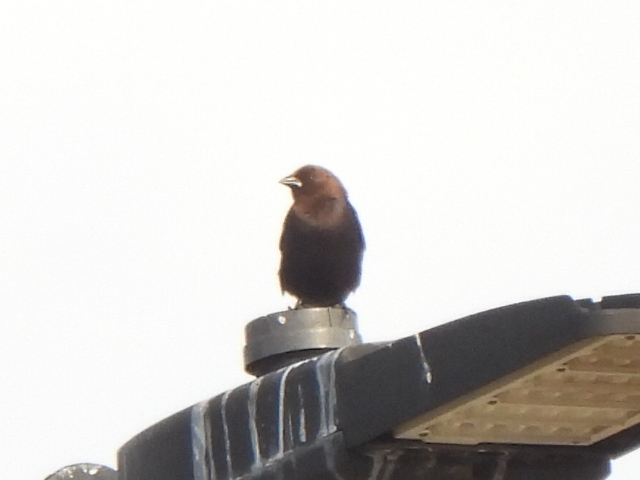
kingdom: Animalia
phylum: Chordata
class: Aves
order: Passeriformes
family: Icteridae
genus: Molothrus
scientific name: Molothrus ater
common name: Brown-headed cowbird
